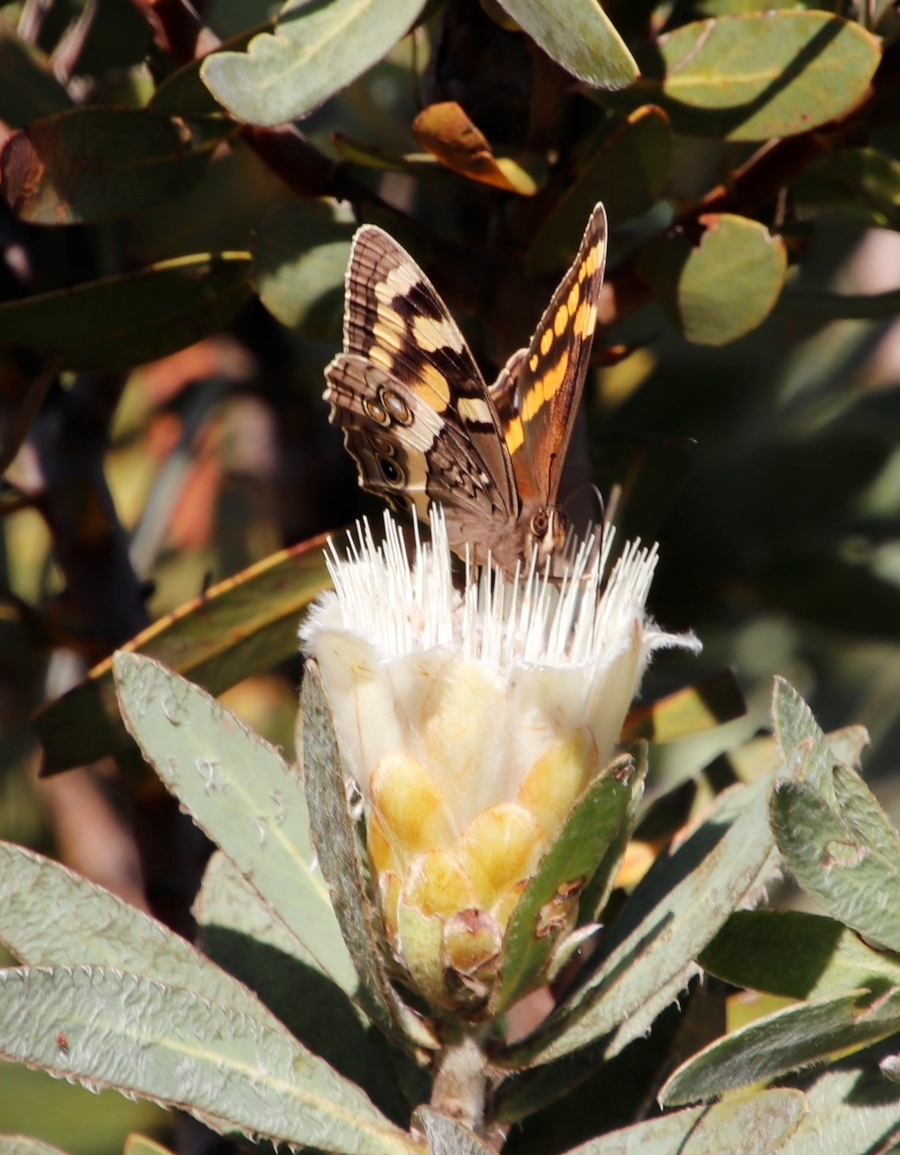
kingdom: Animalia
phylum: Arthropoda
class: Insecta
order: Lepidoptera
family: Nymphalidae
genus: Meneris
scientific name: Meneris Aeropetes tulbaghia
